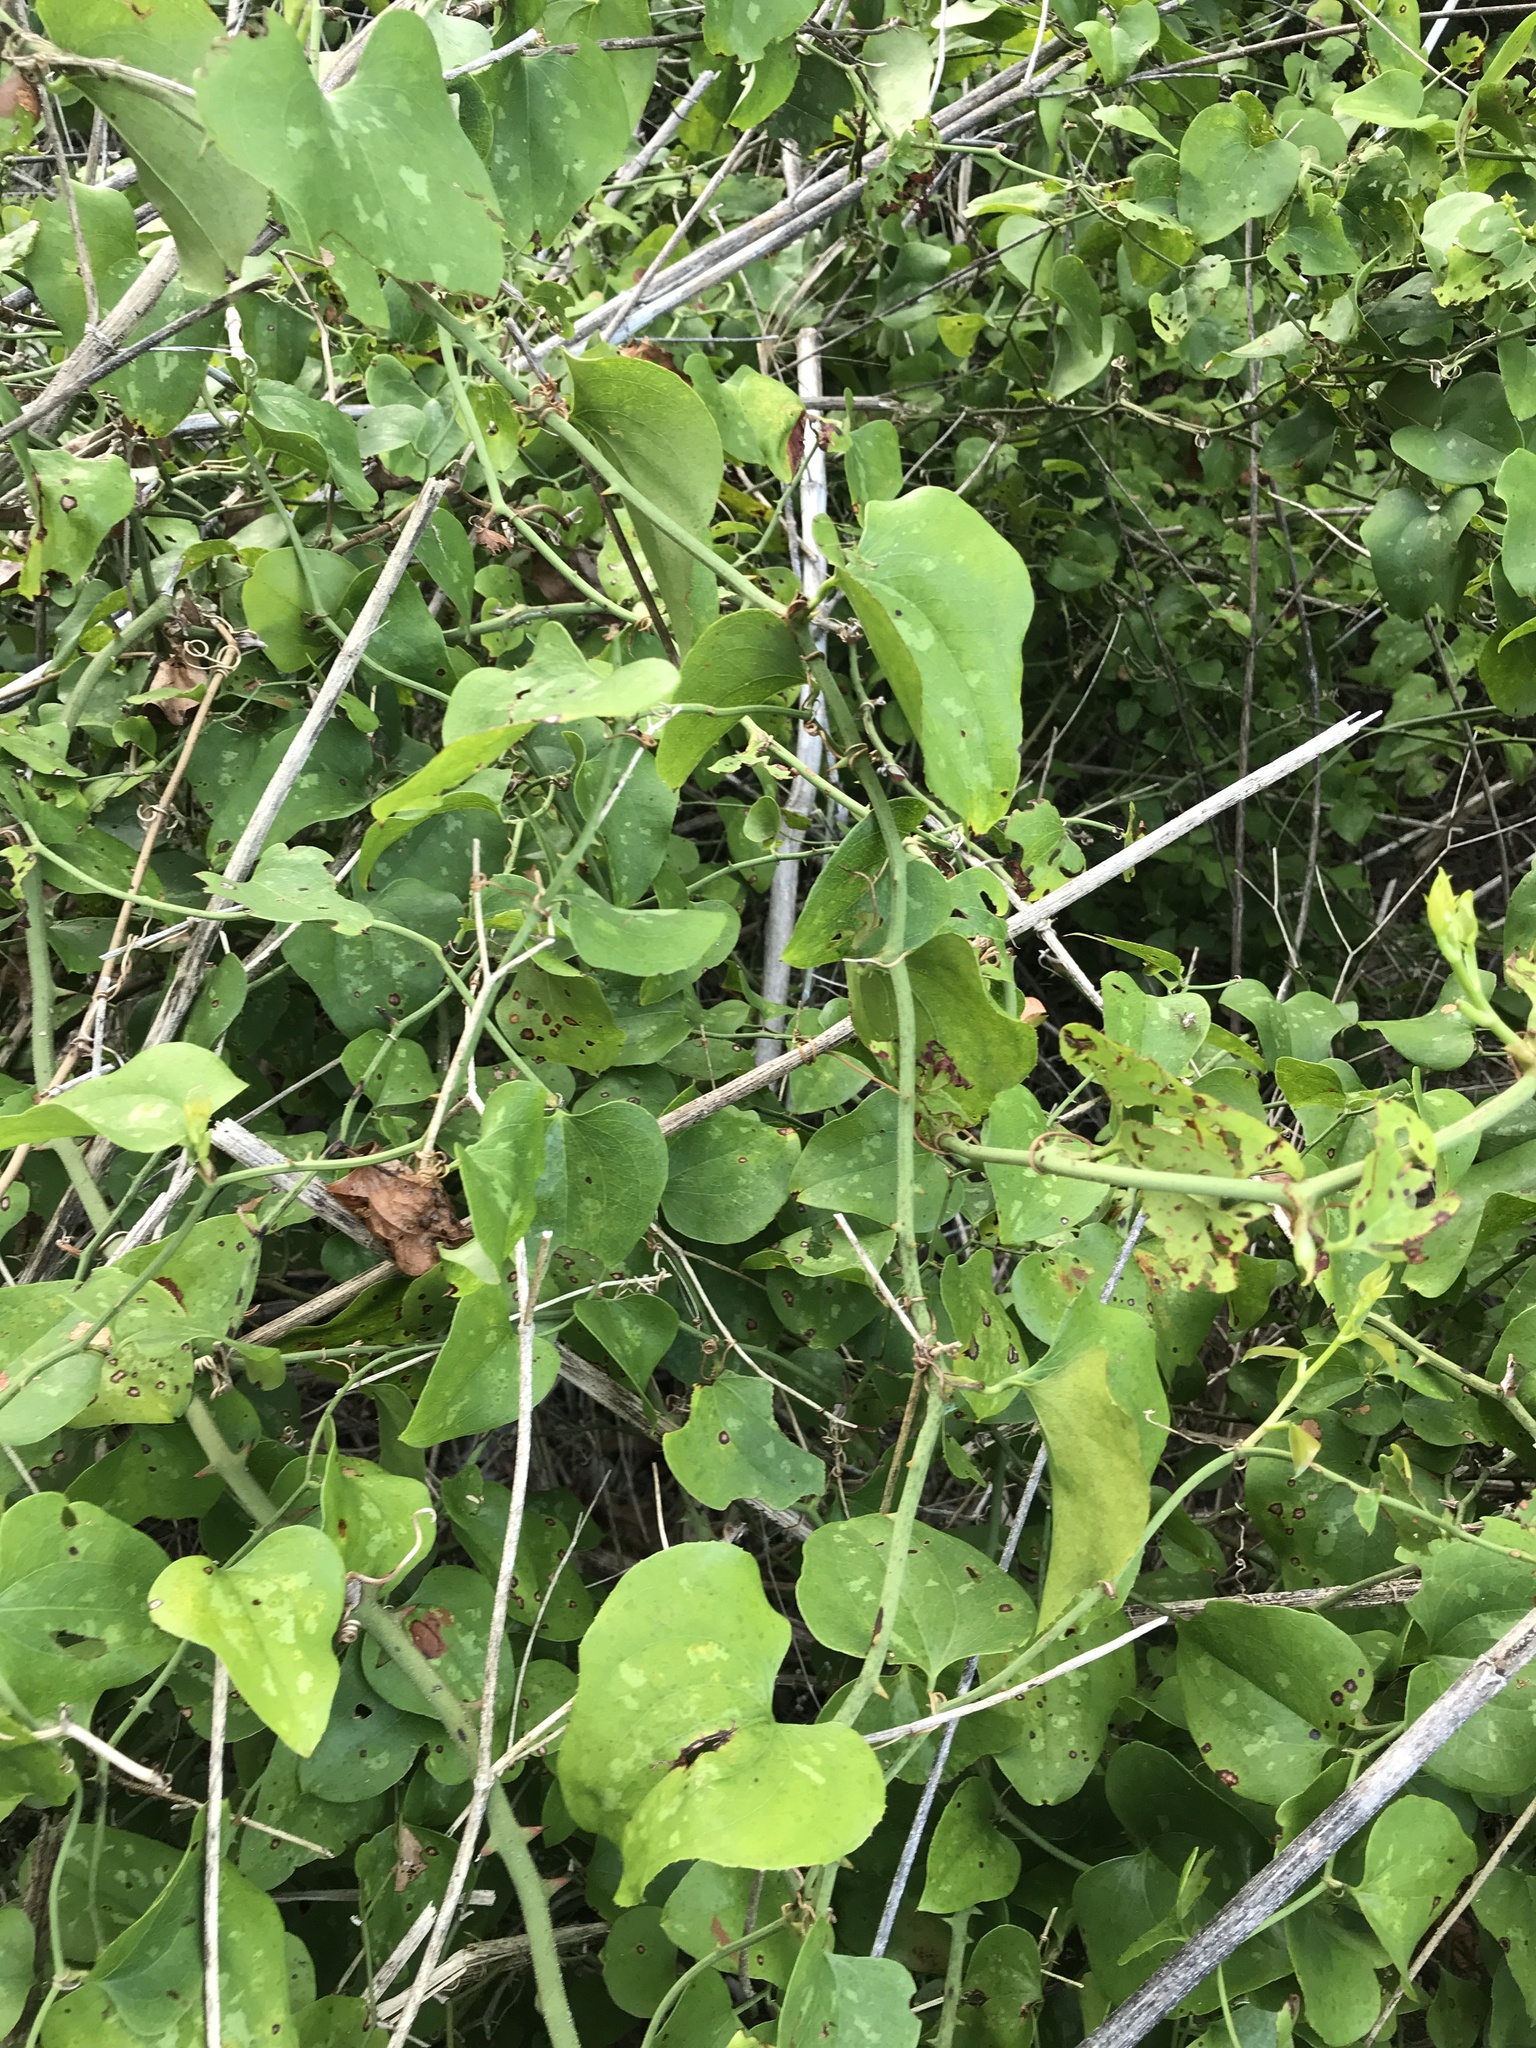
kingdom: Plantae
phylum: Tracheophyta
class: Liliopsida
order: Liliales
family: Smilacaceae
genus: Smilax
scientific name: Smilax bona-nox
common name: Catbrier
